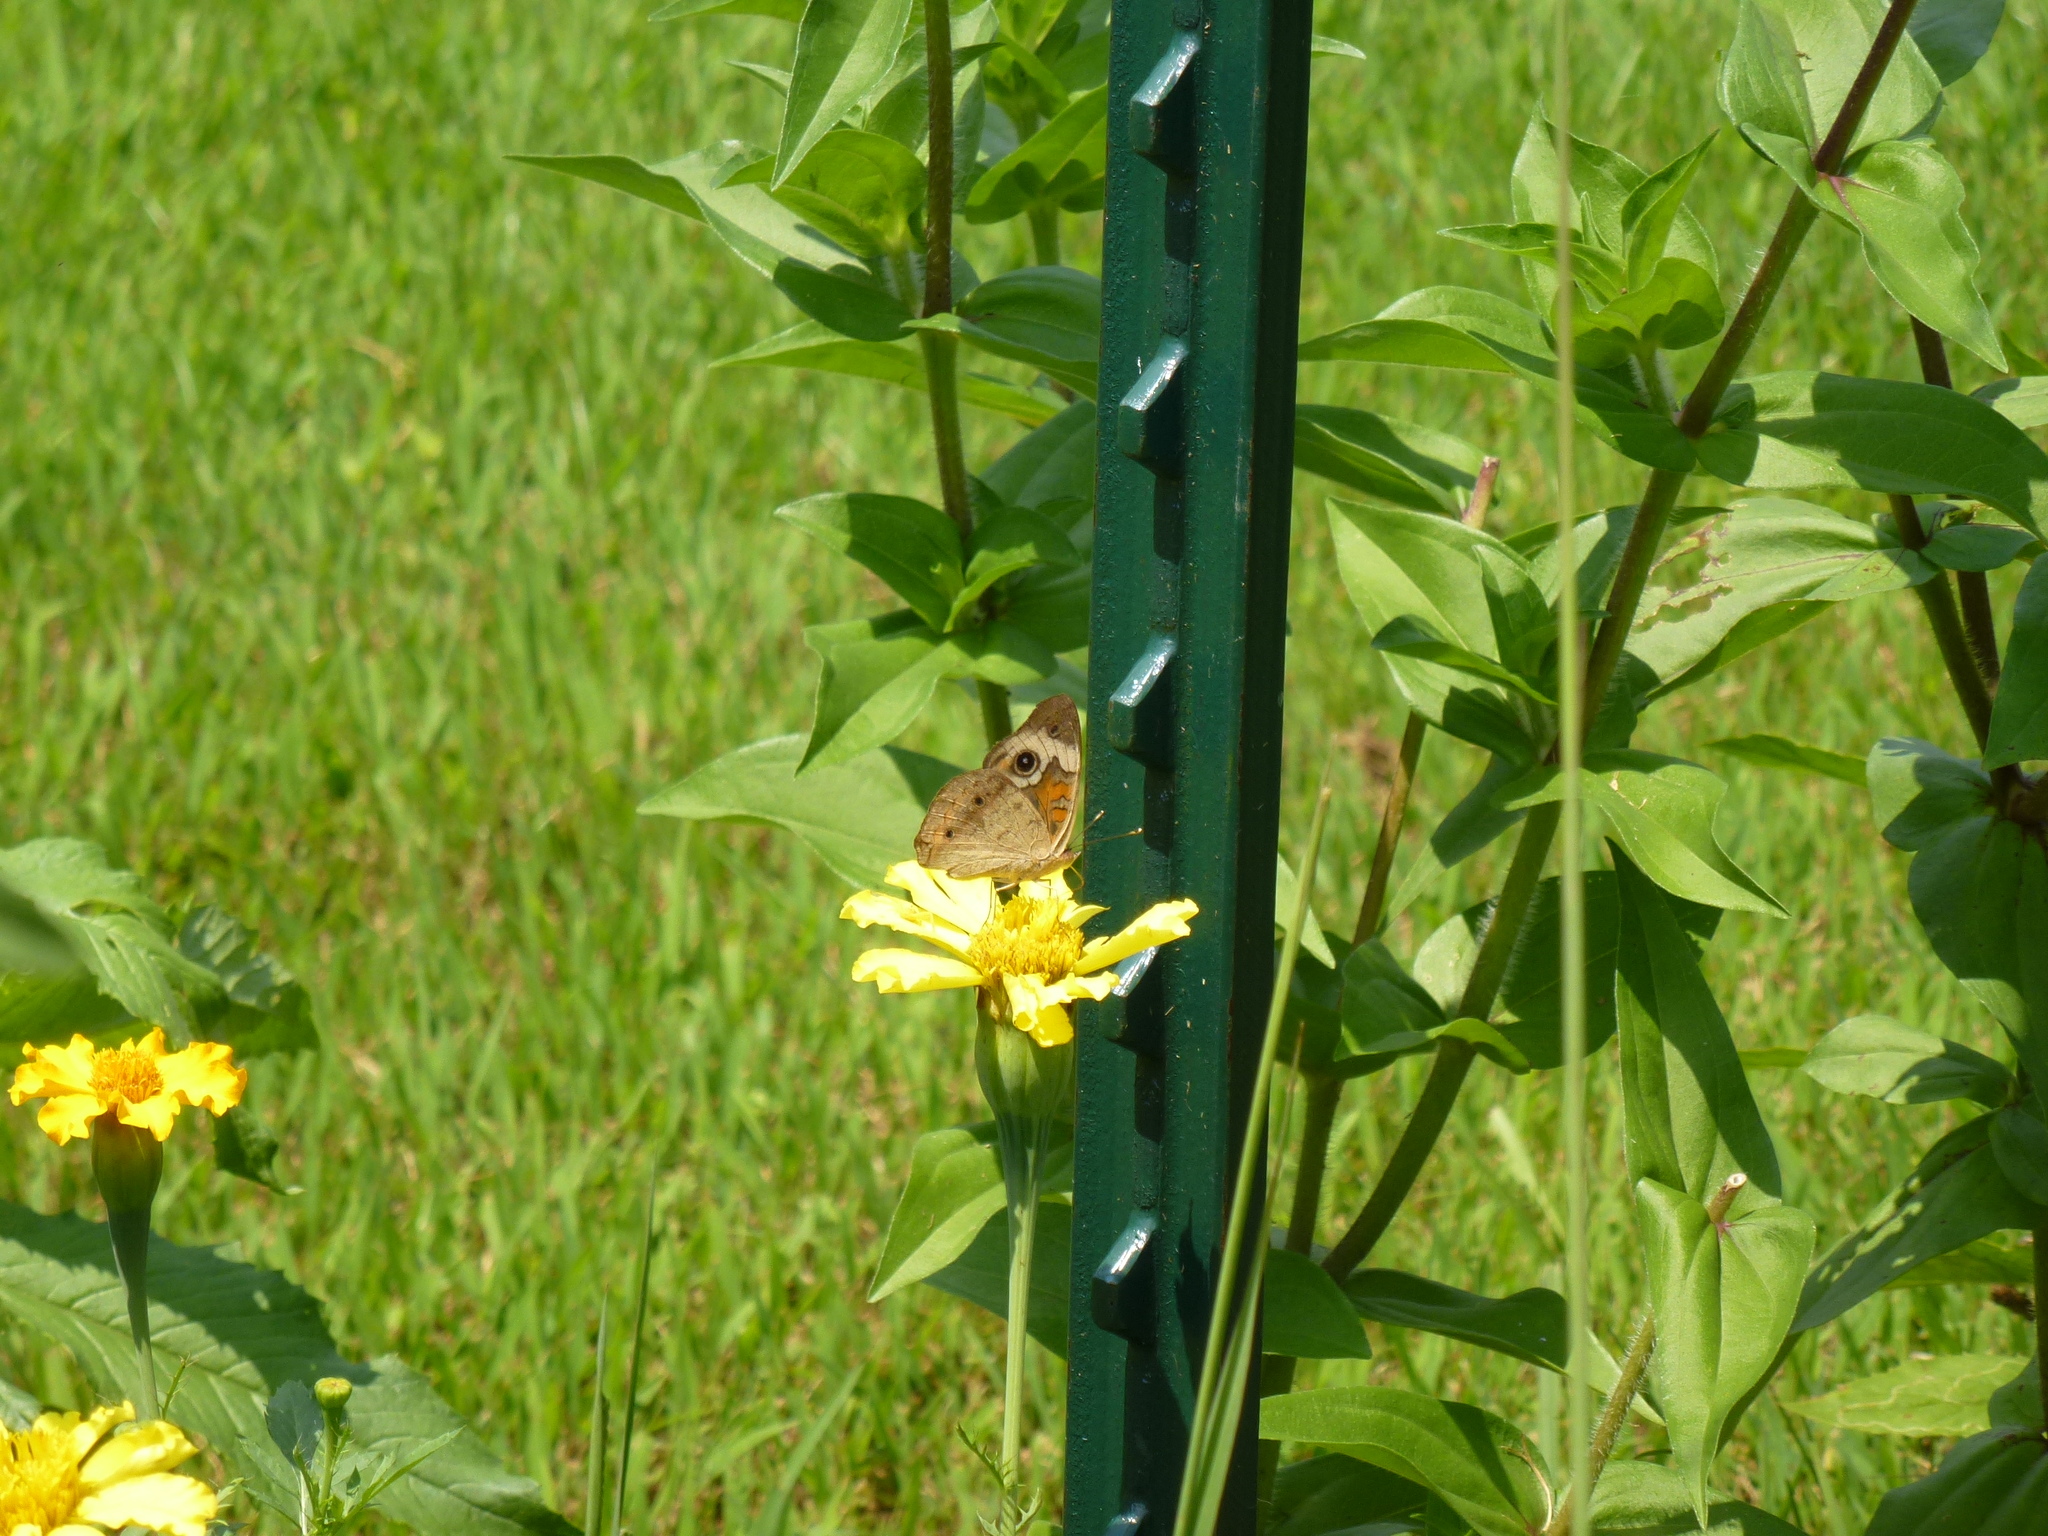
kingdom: Animalia
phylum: Arthropoda
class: Insecta
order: Lepidoptera
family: Nymphalidae
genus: Junonia
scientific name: Junonia coenia
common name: Common buckeye
